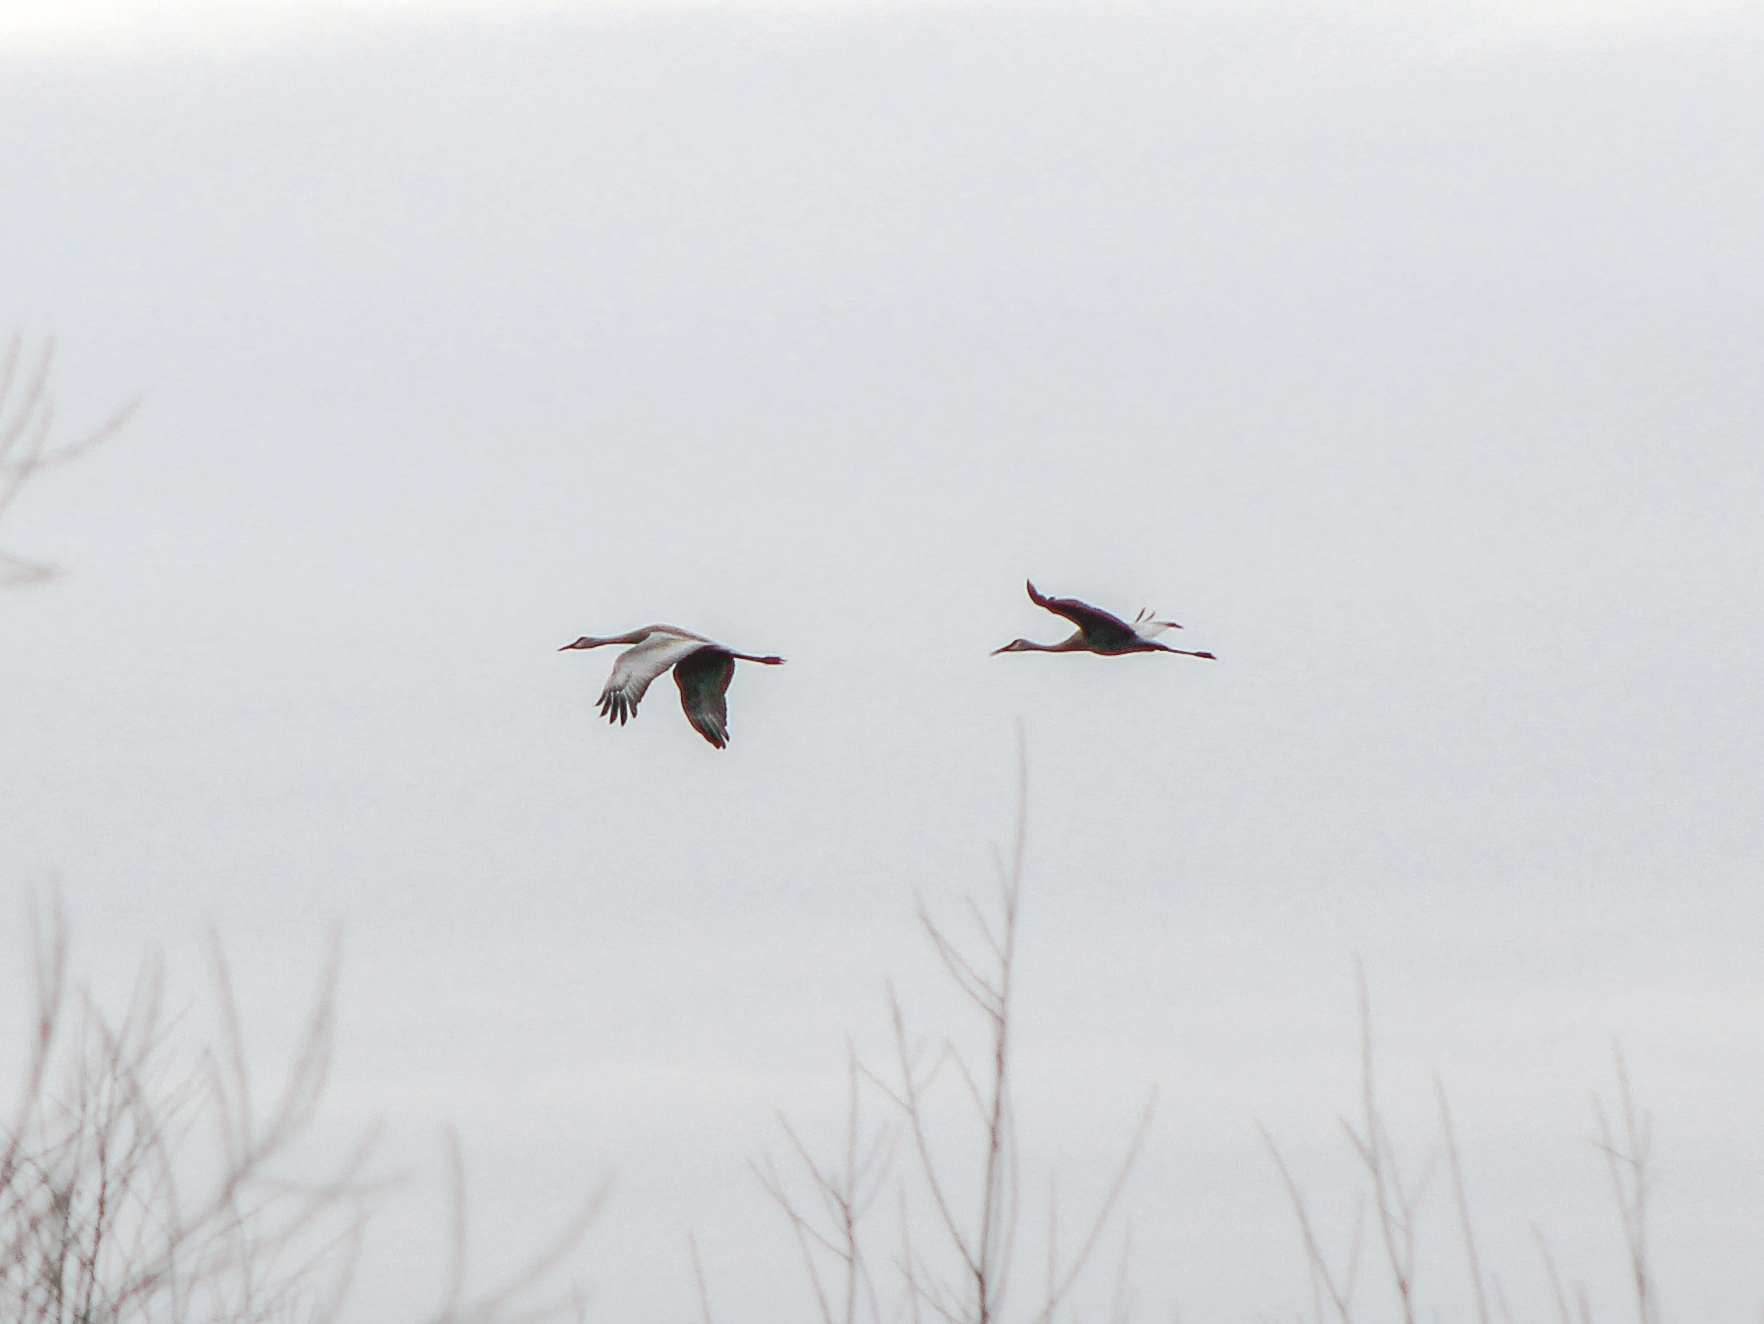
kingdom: Animalia
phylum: Chordata
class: Aves
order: Gruiformes
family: Gruidae
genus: Grus
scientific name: Grus canadensis
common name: Sandhill crane
